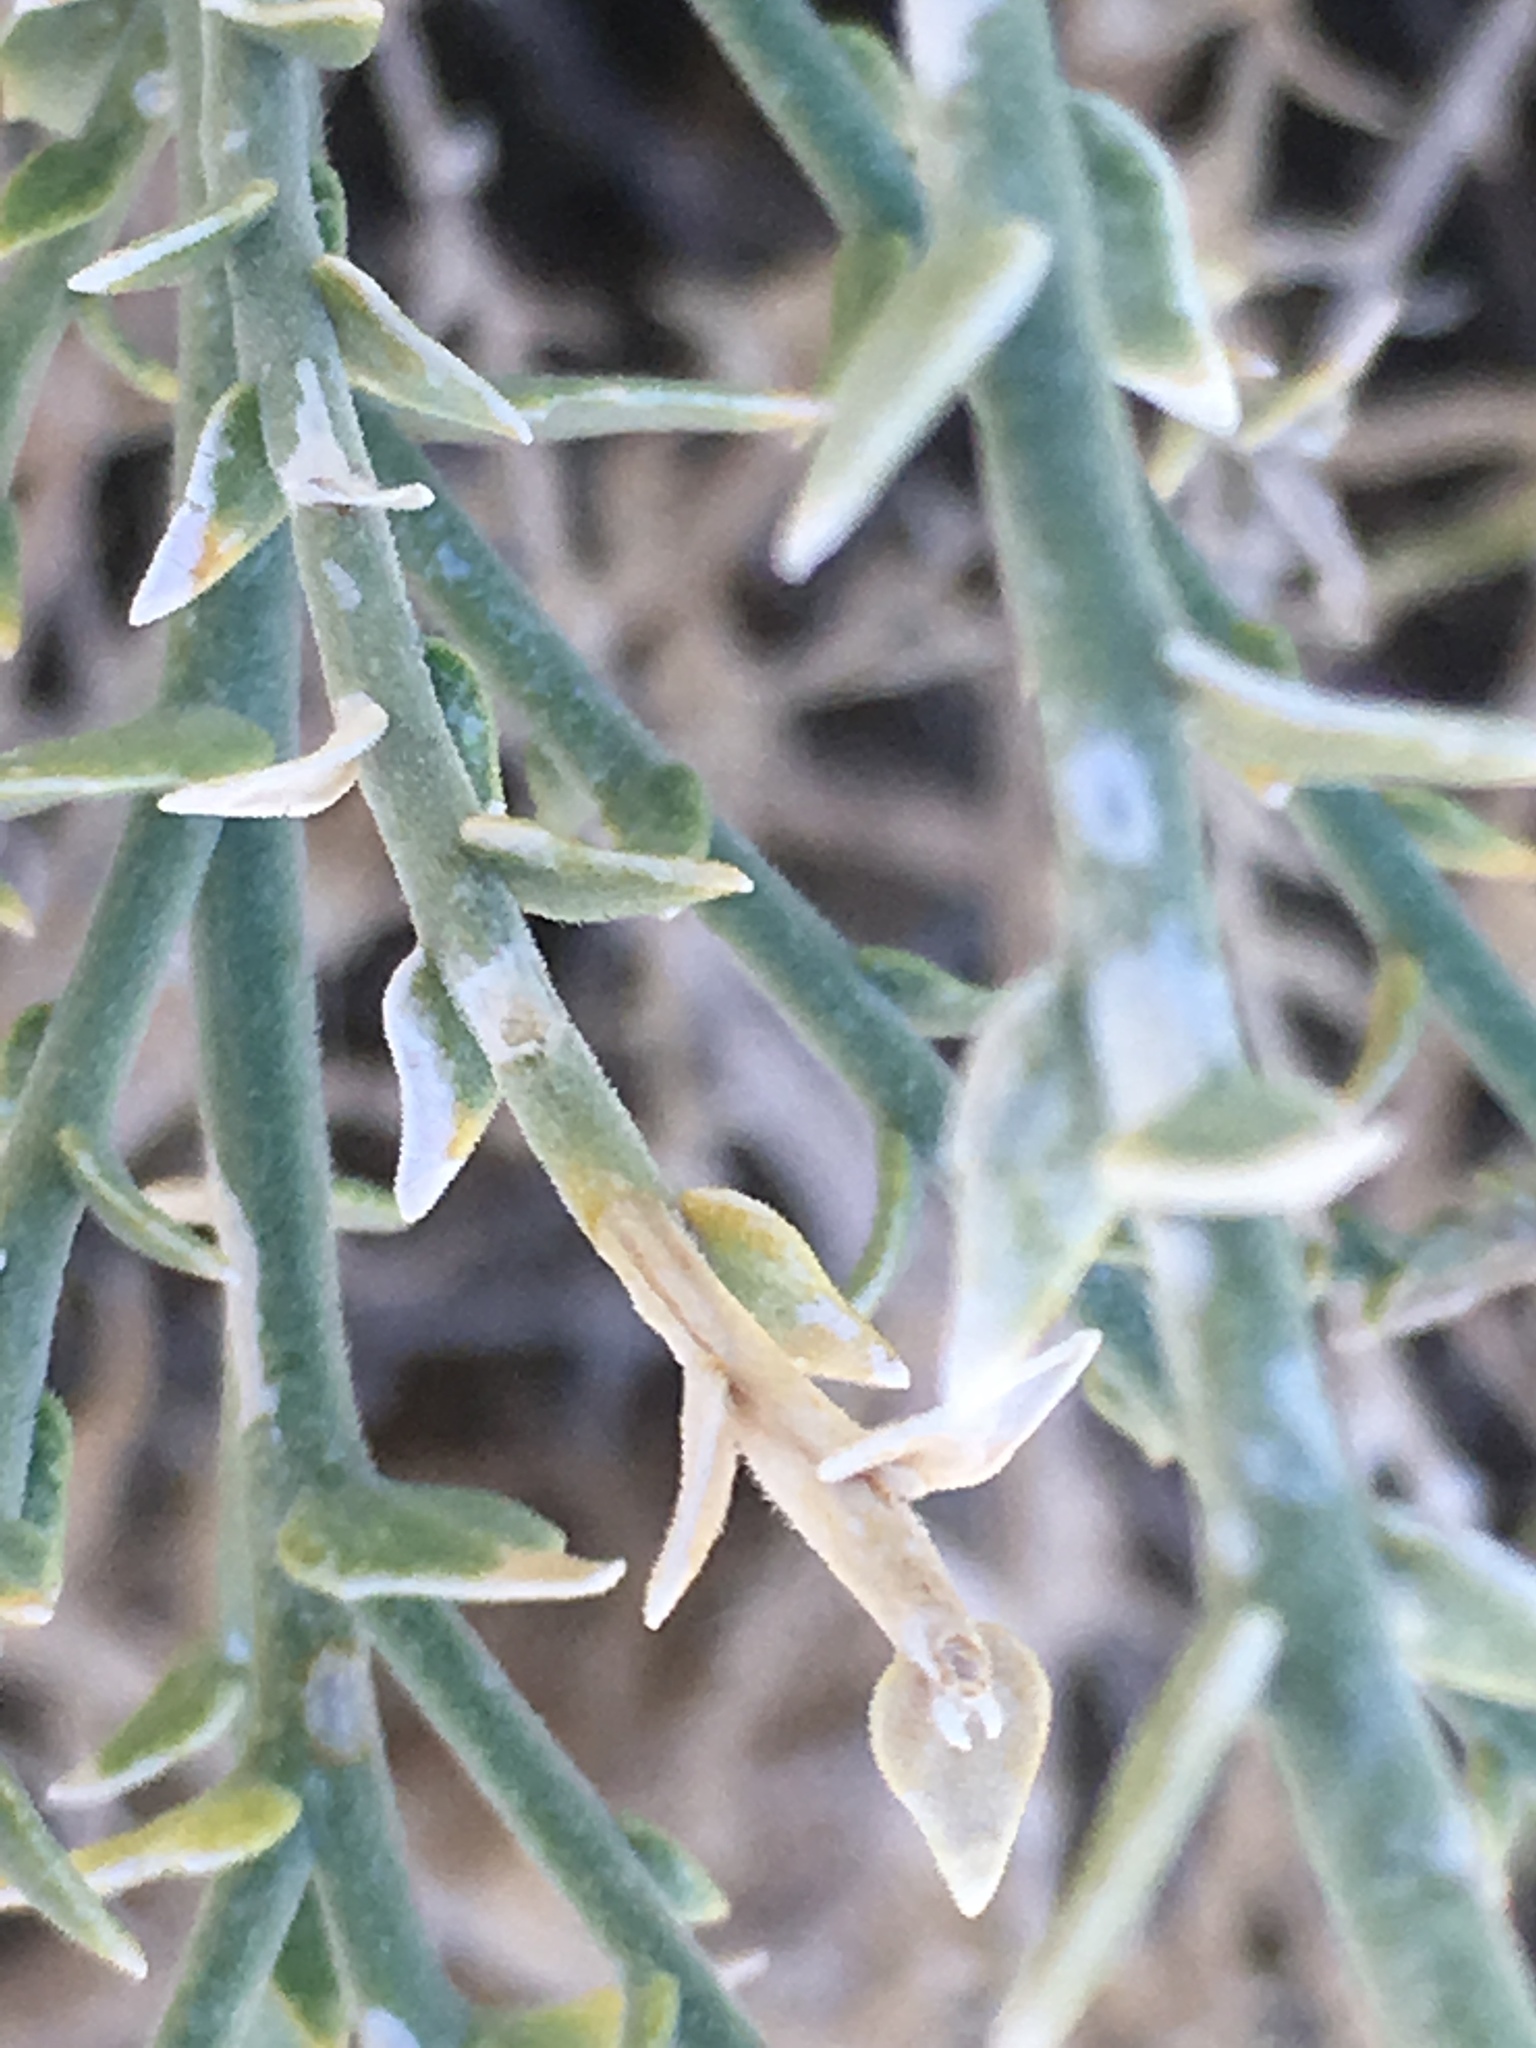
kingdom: Plantae
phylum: Tracheophyta
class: Magnoliopsida
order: Cornales
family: Loasaceae
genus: Petalonyx
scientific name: Petalonyx thurberi
